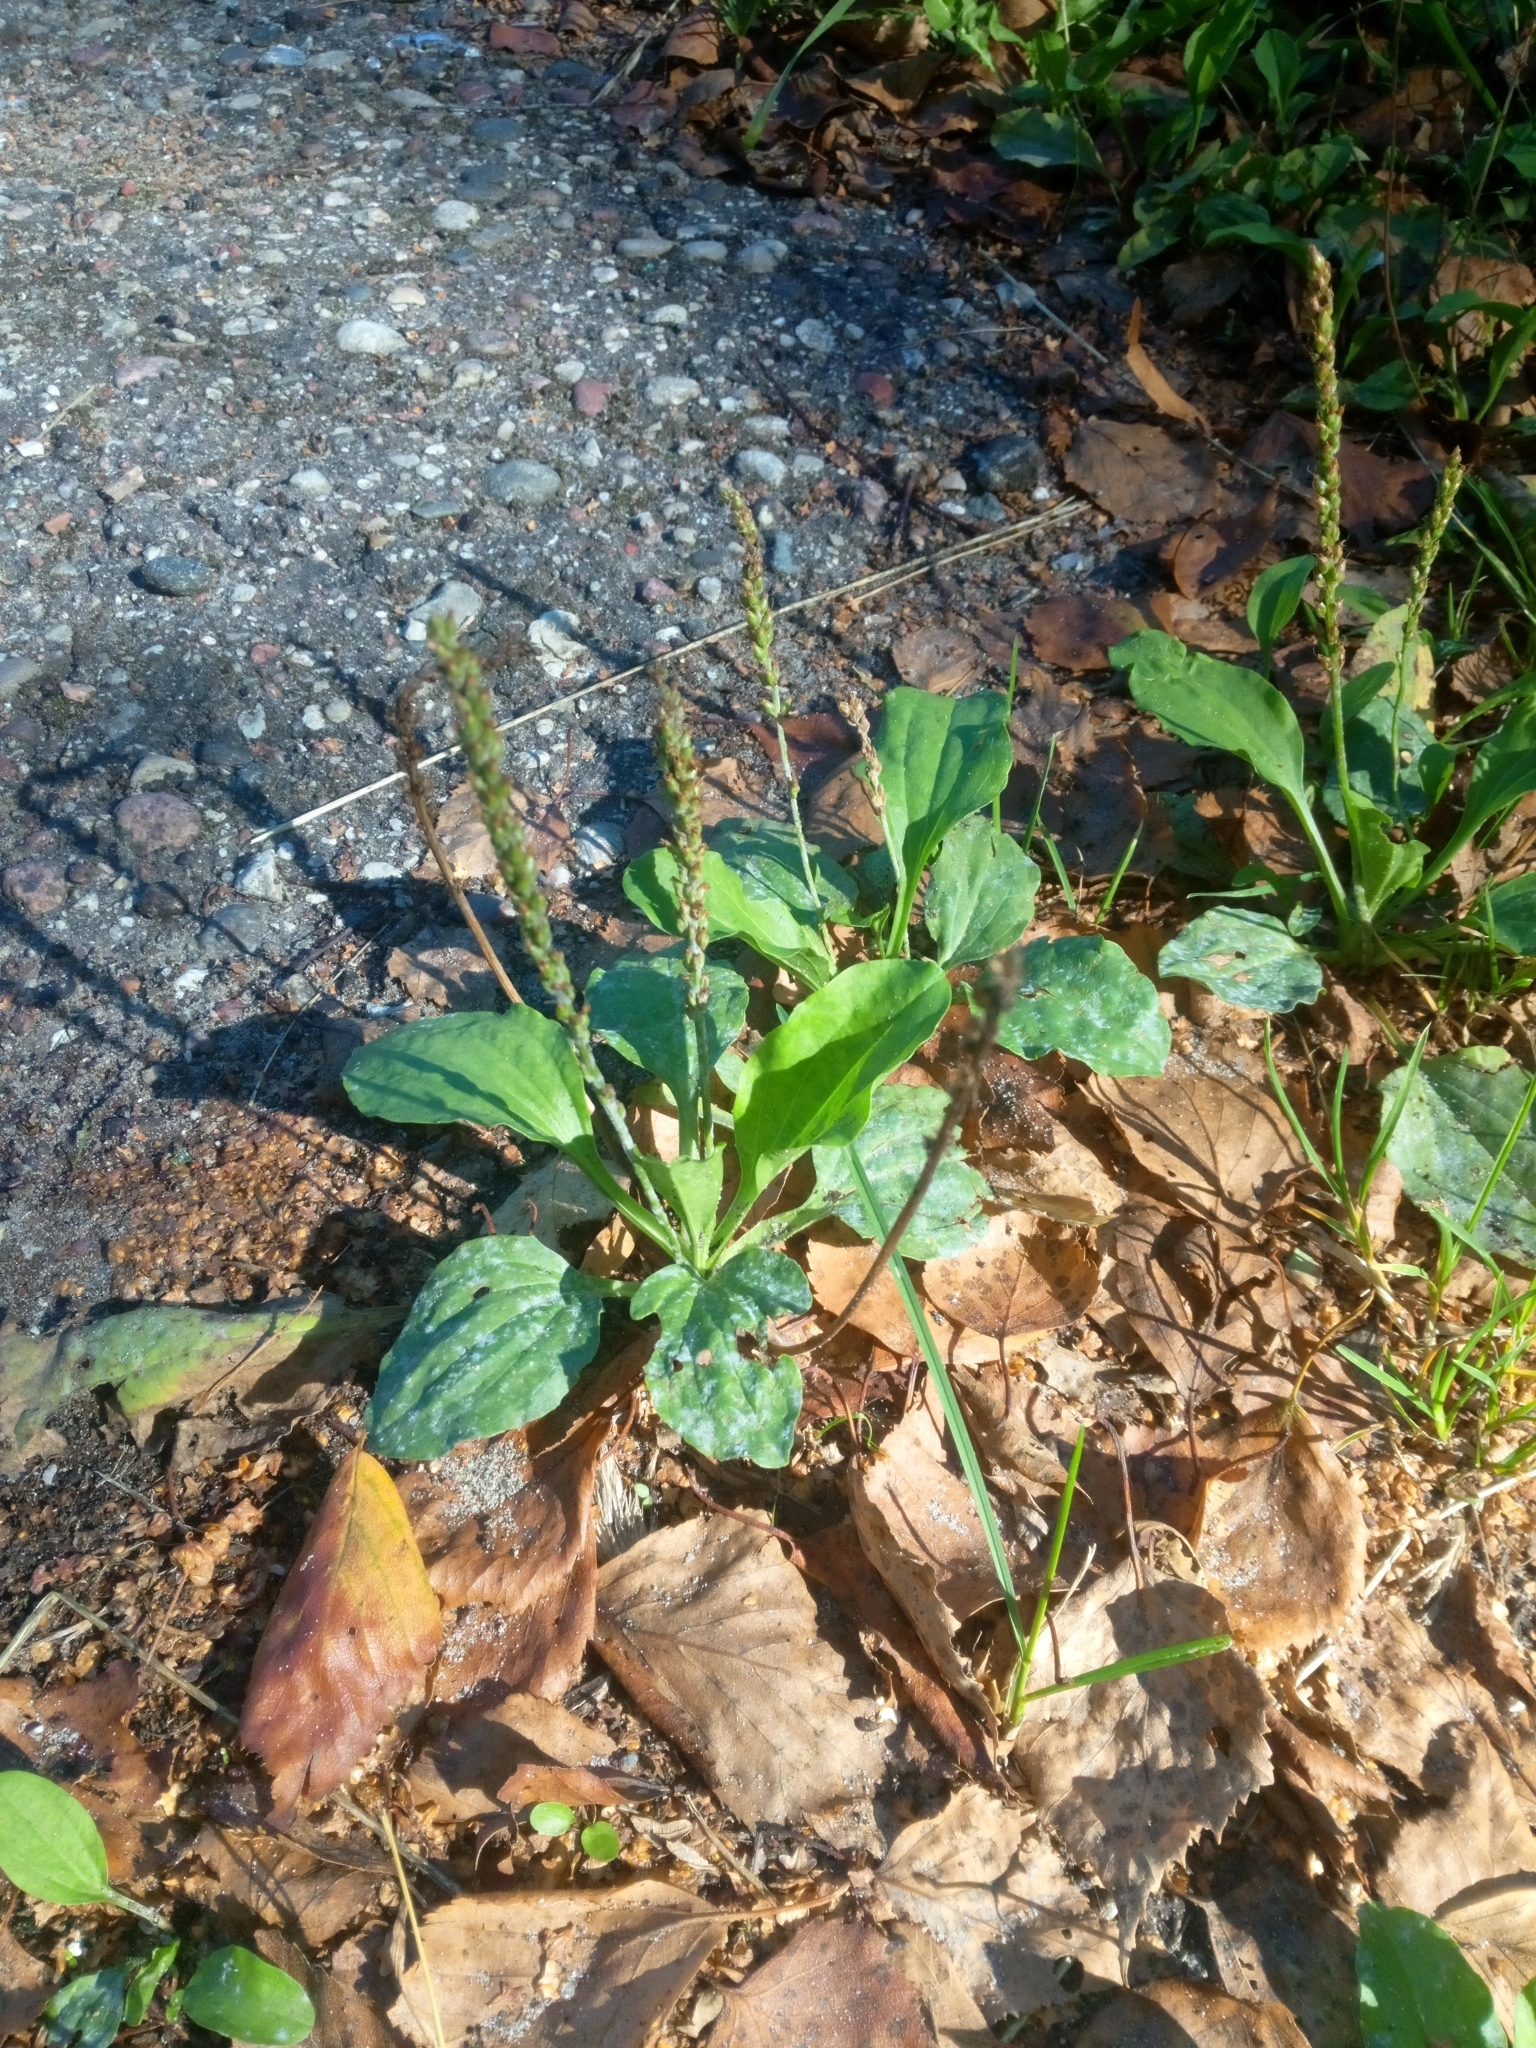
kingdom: Plantae
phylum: Tracheophyta
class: Magnoliopsida
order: Lamiales
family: Plantaginaceae
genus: Plantago
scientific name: Plantago major
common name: Common plantain
